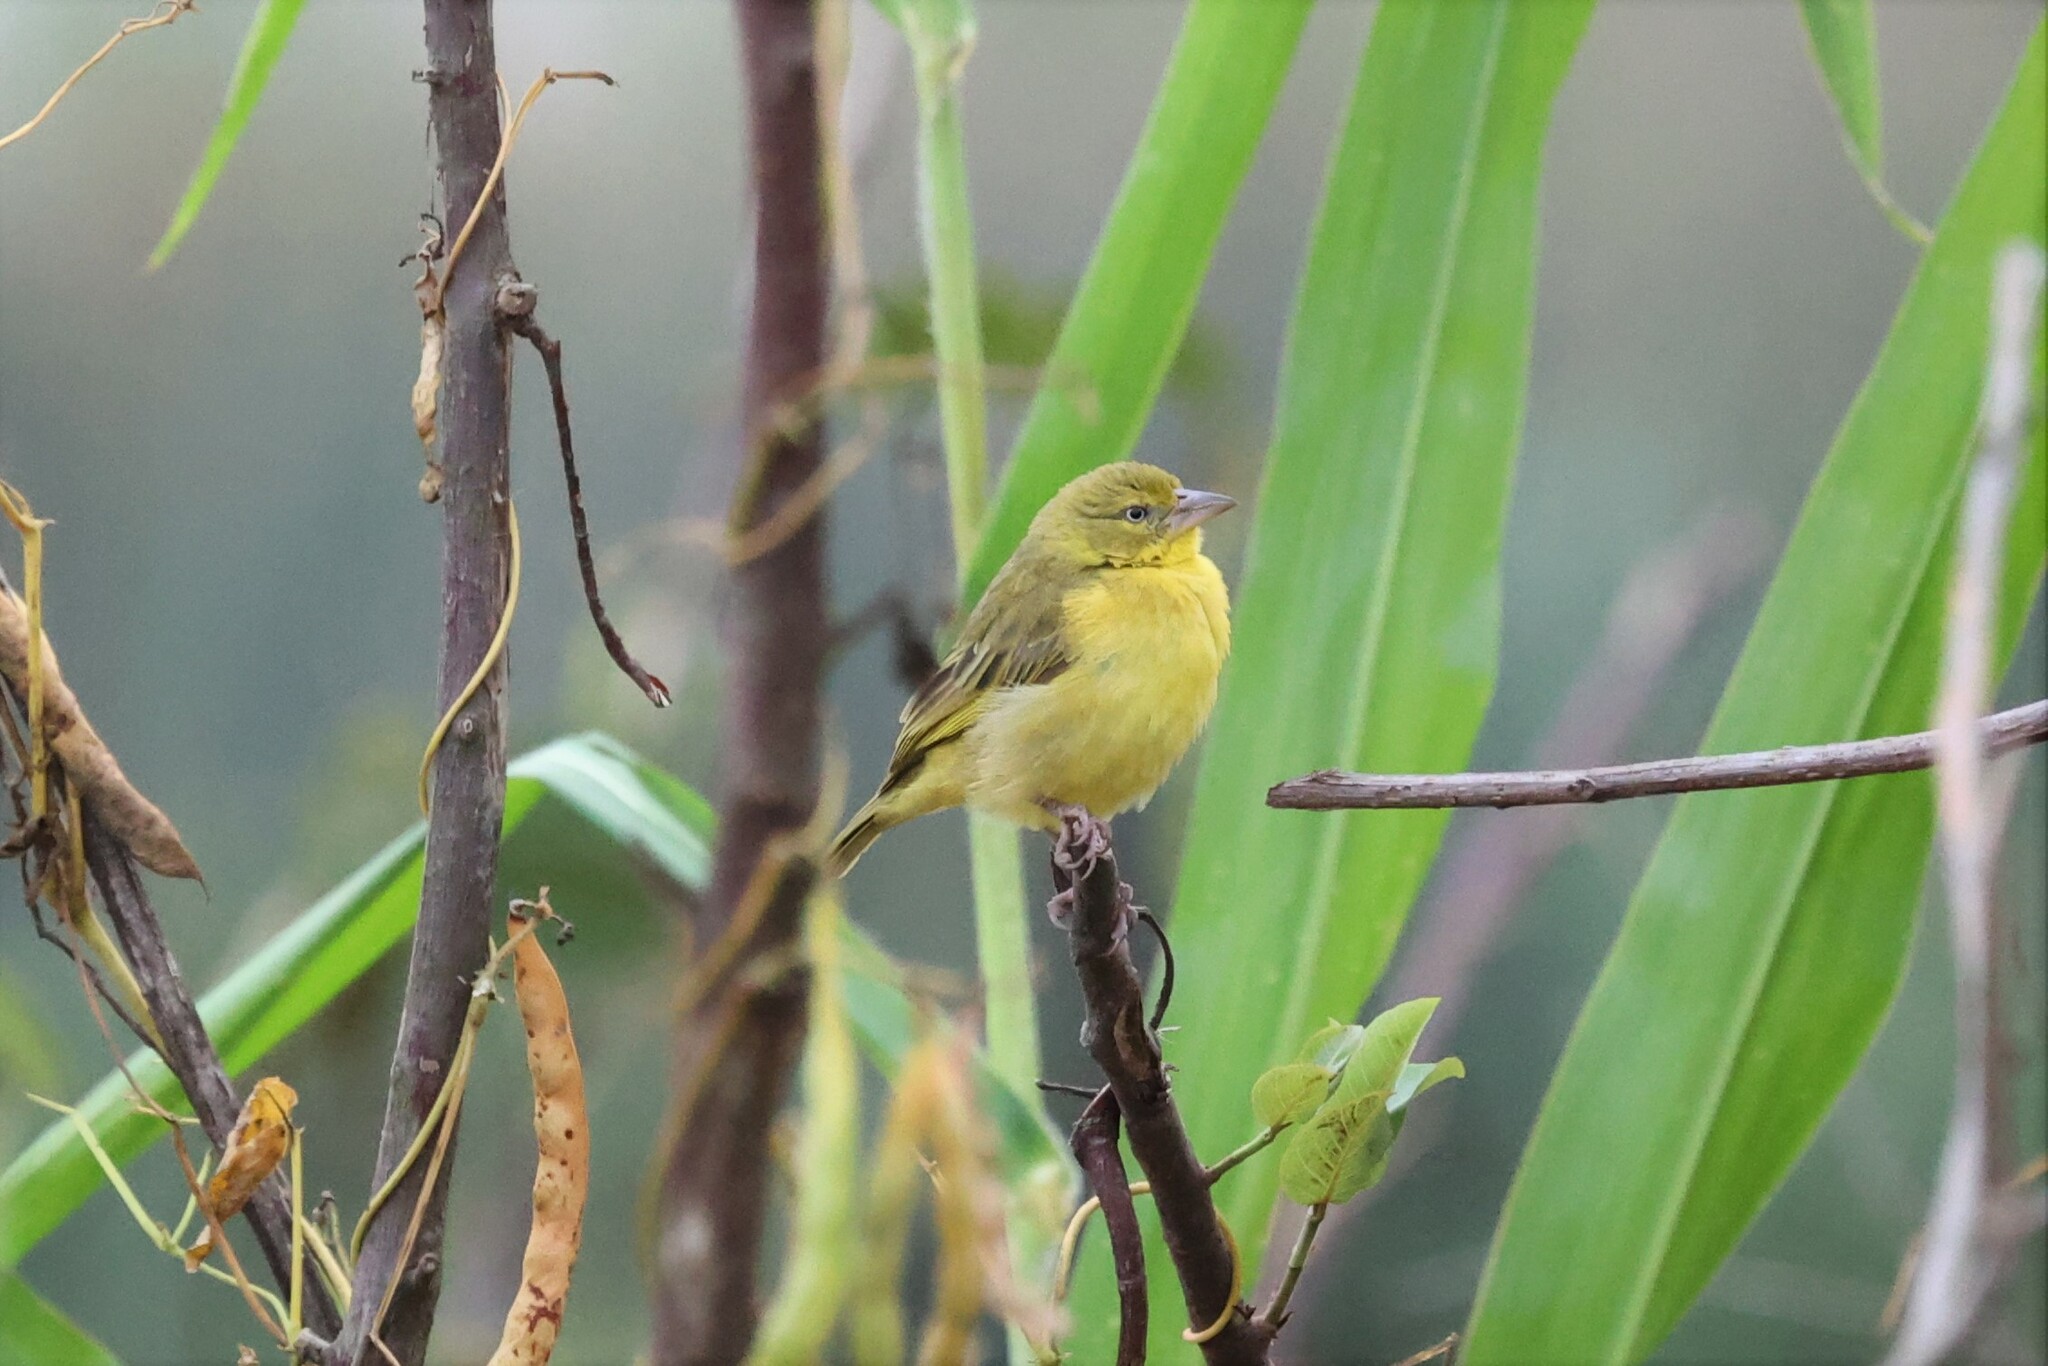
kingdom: Animalia
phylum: Chordata
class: Aves
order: Passeriformes
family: Ploceidae
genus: Ploceus
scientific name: Ploceus xanthops
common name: Holub's golden weaver
